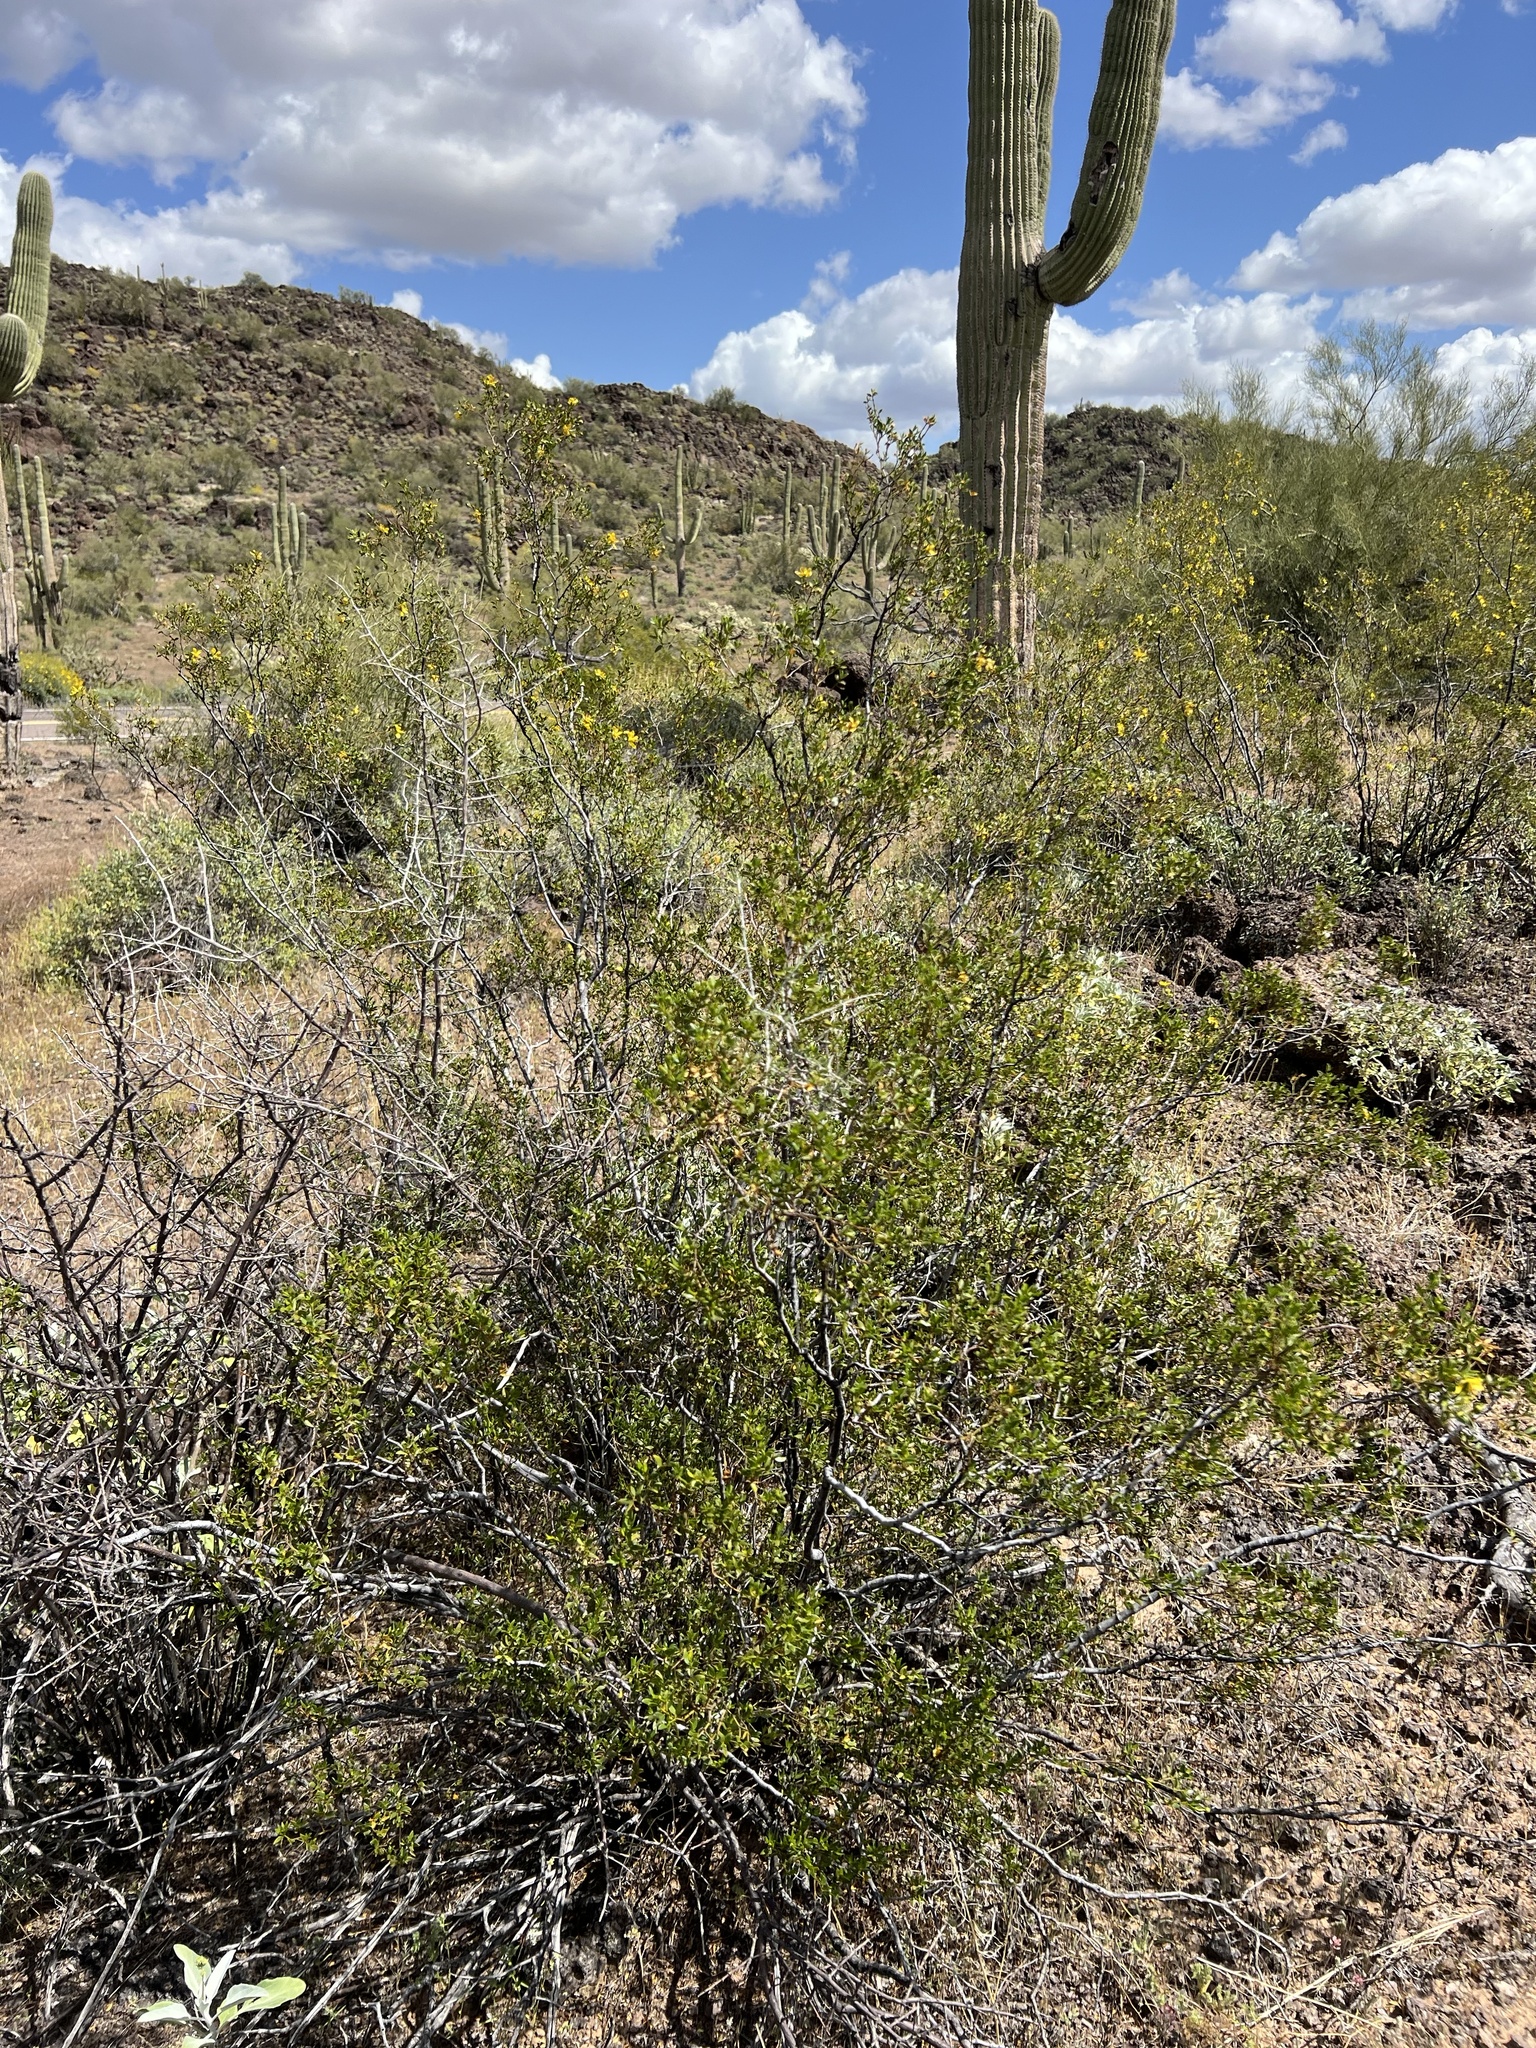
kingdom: Plantae
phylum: Tracheophyta
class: Magnoliopsida
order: Zygophyllales
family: Zygophyllaceae
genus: Larrea
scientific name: Larrea tridentata
